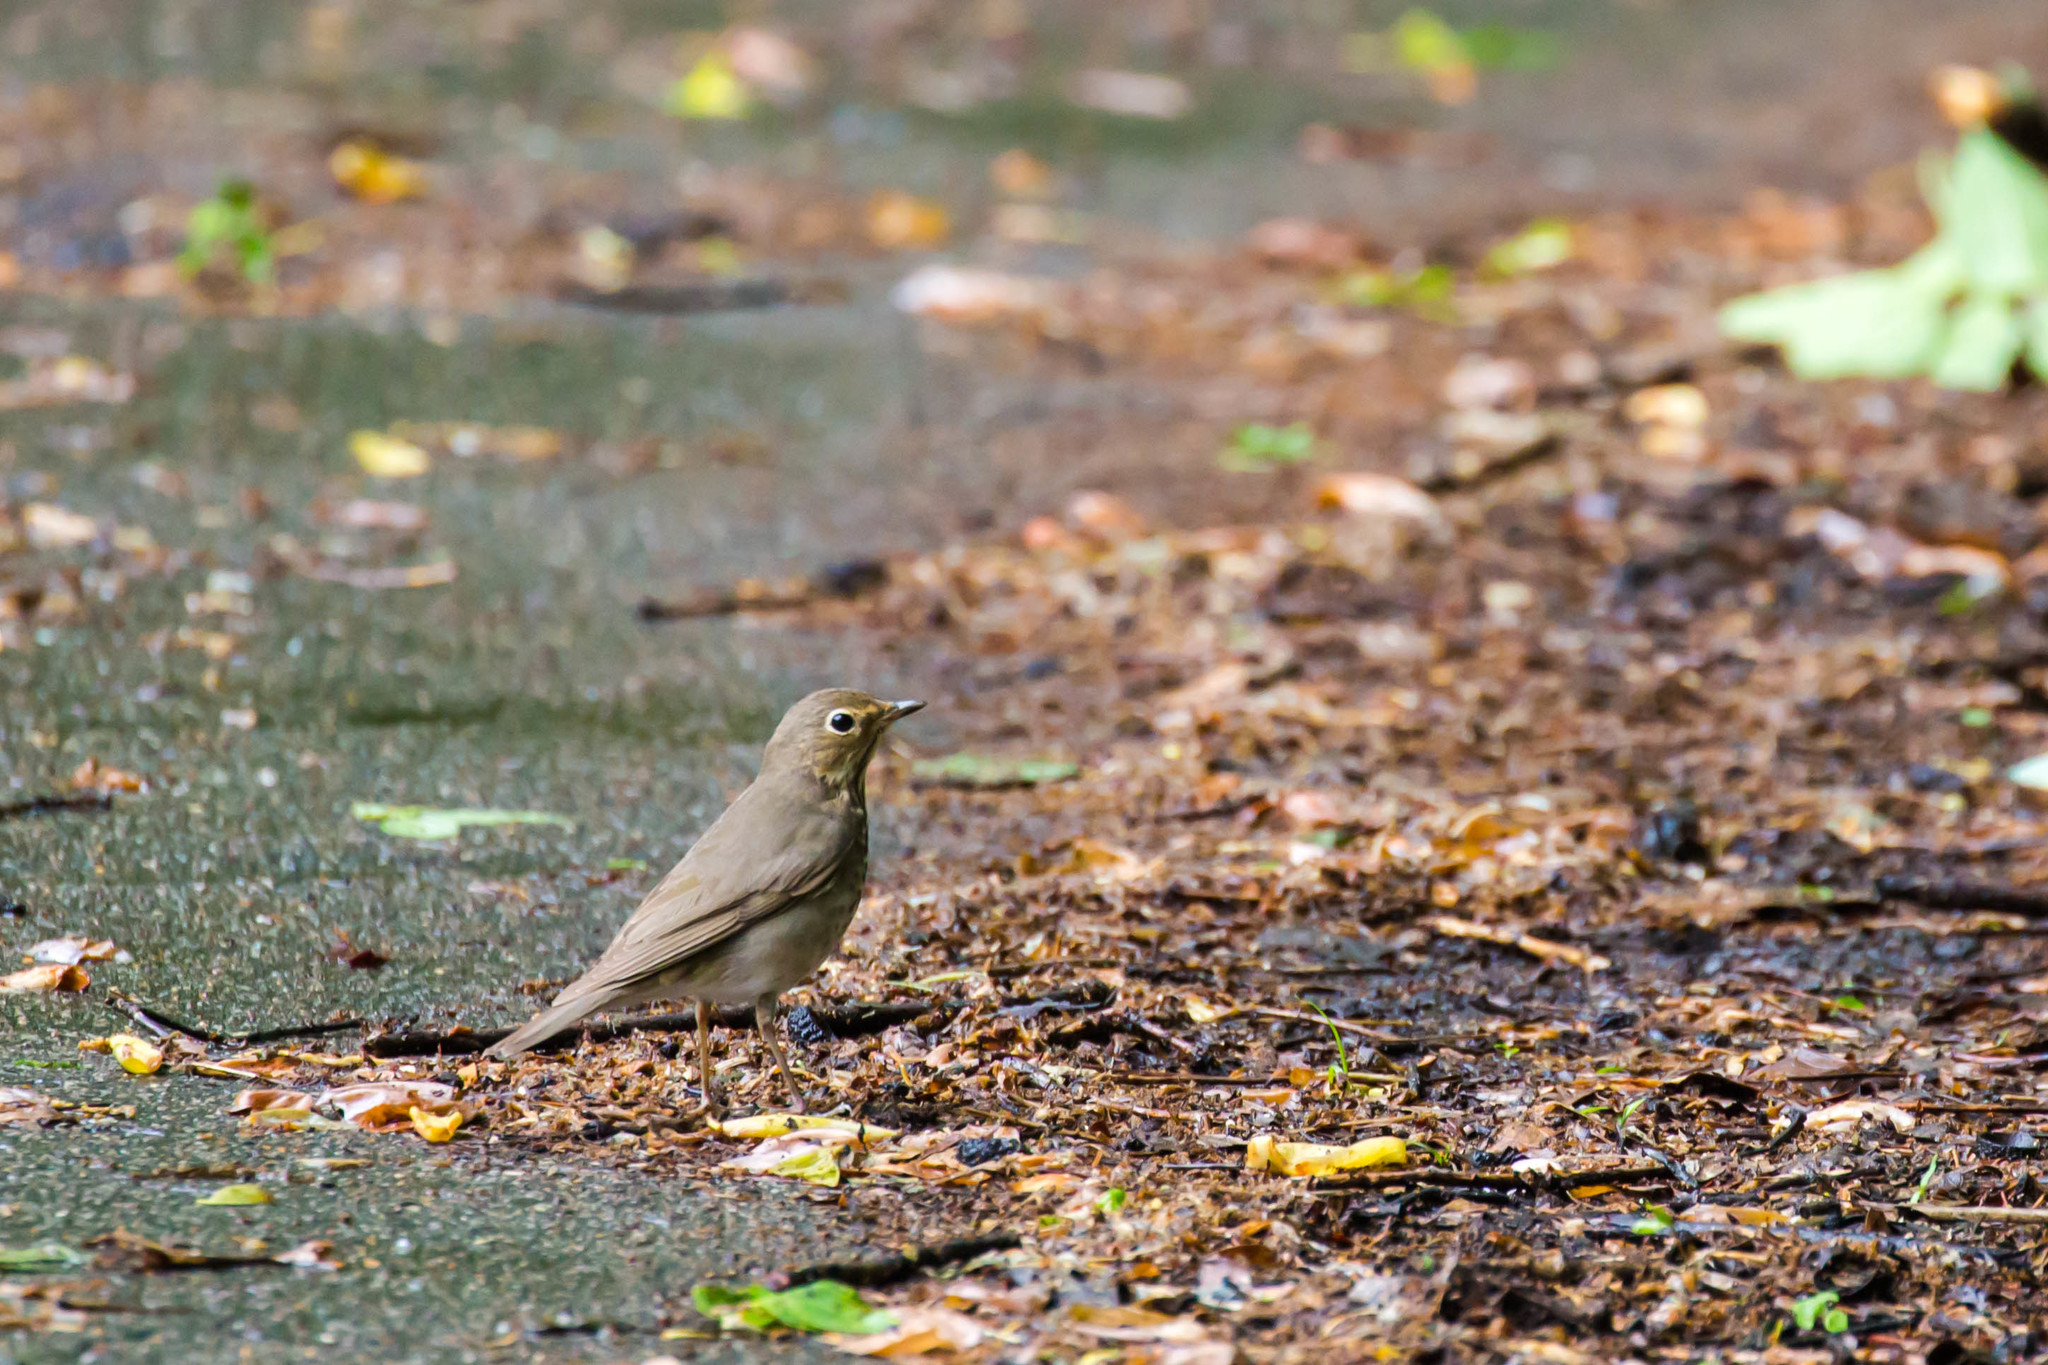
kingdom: Animalia
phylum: Chordata
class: Aves
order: Passeriformes
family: Turdidae
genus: Catharus
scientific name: Catharus ustulatus
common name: Swainson's thrush
